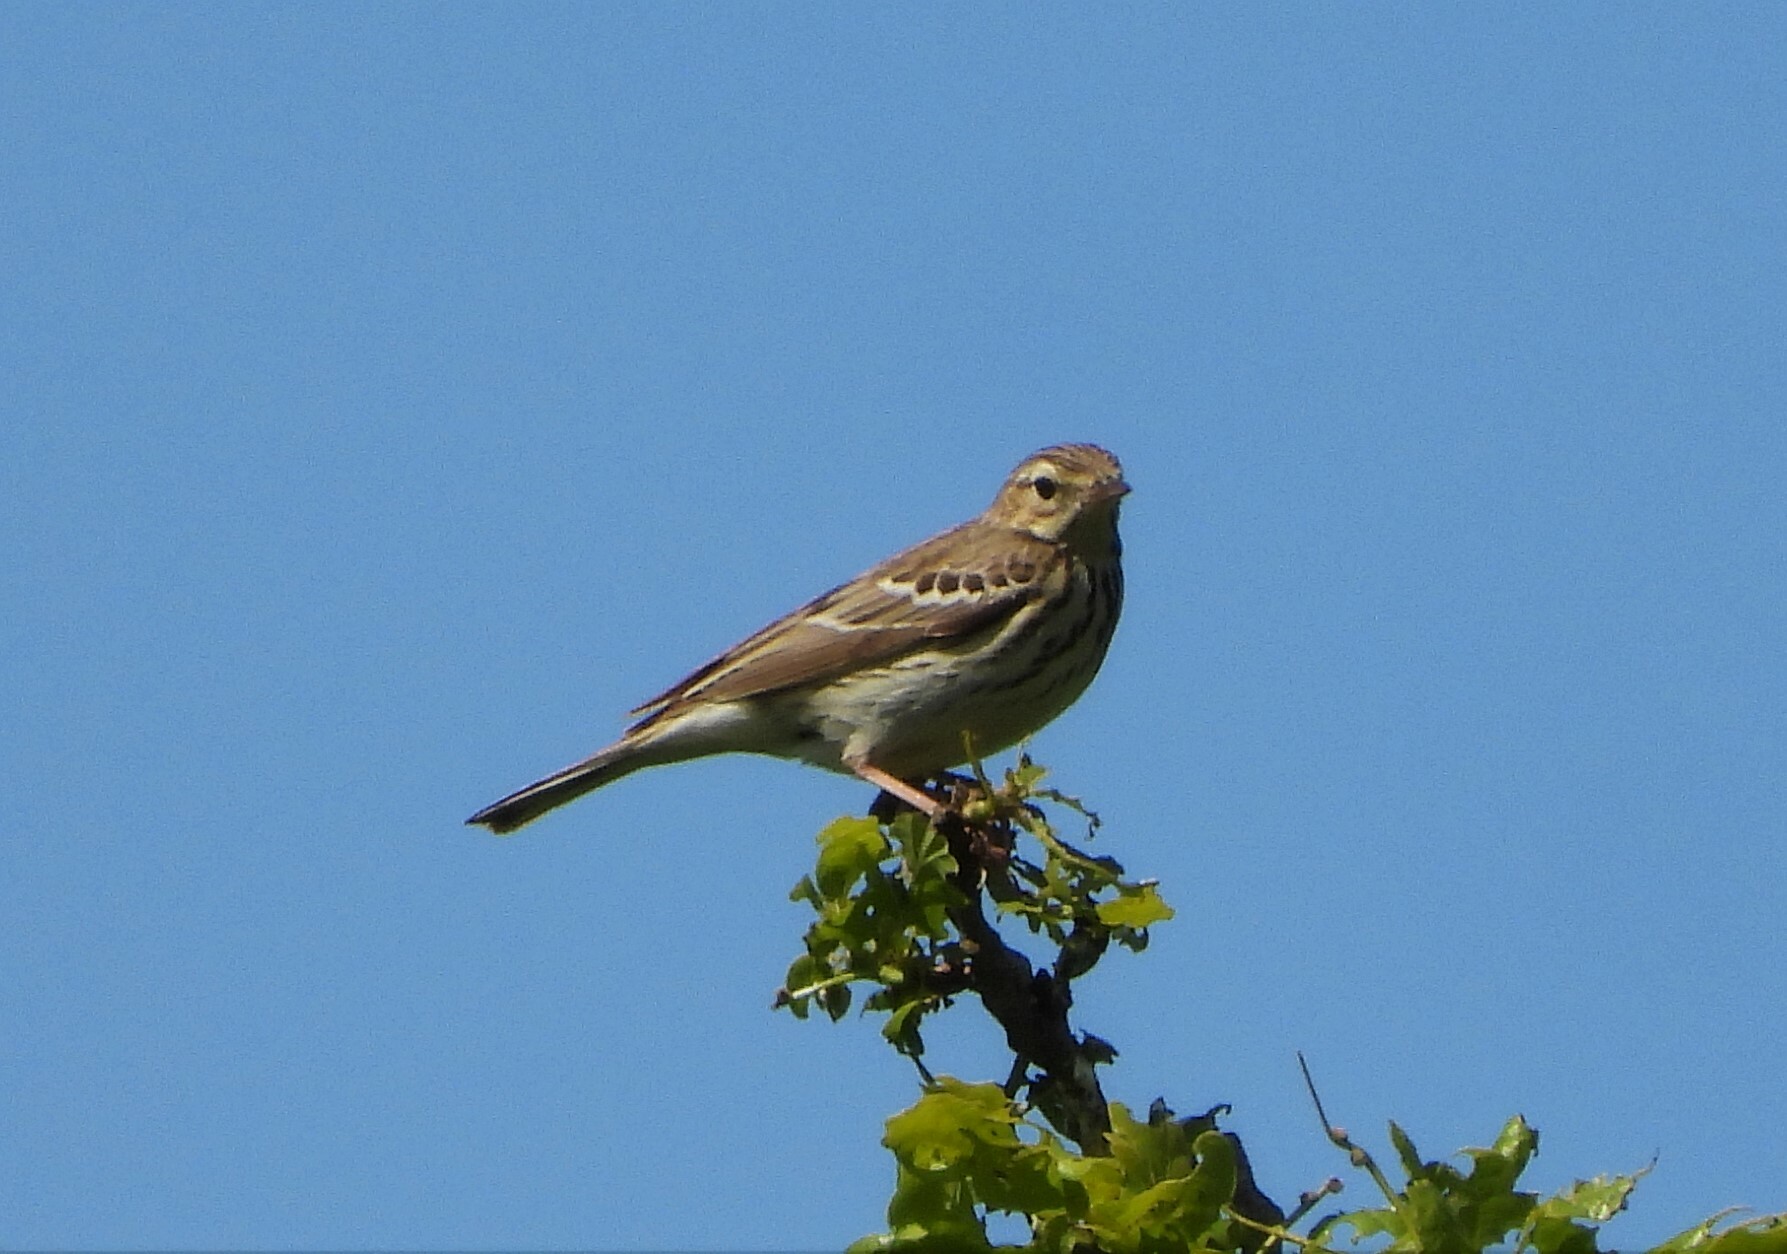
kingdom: Animalia
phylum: Chordata
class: Aves
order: Passeriformes
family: Motacillidae
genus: Anthus
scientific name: Anthus trivialis
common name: Tree pipit
